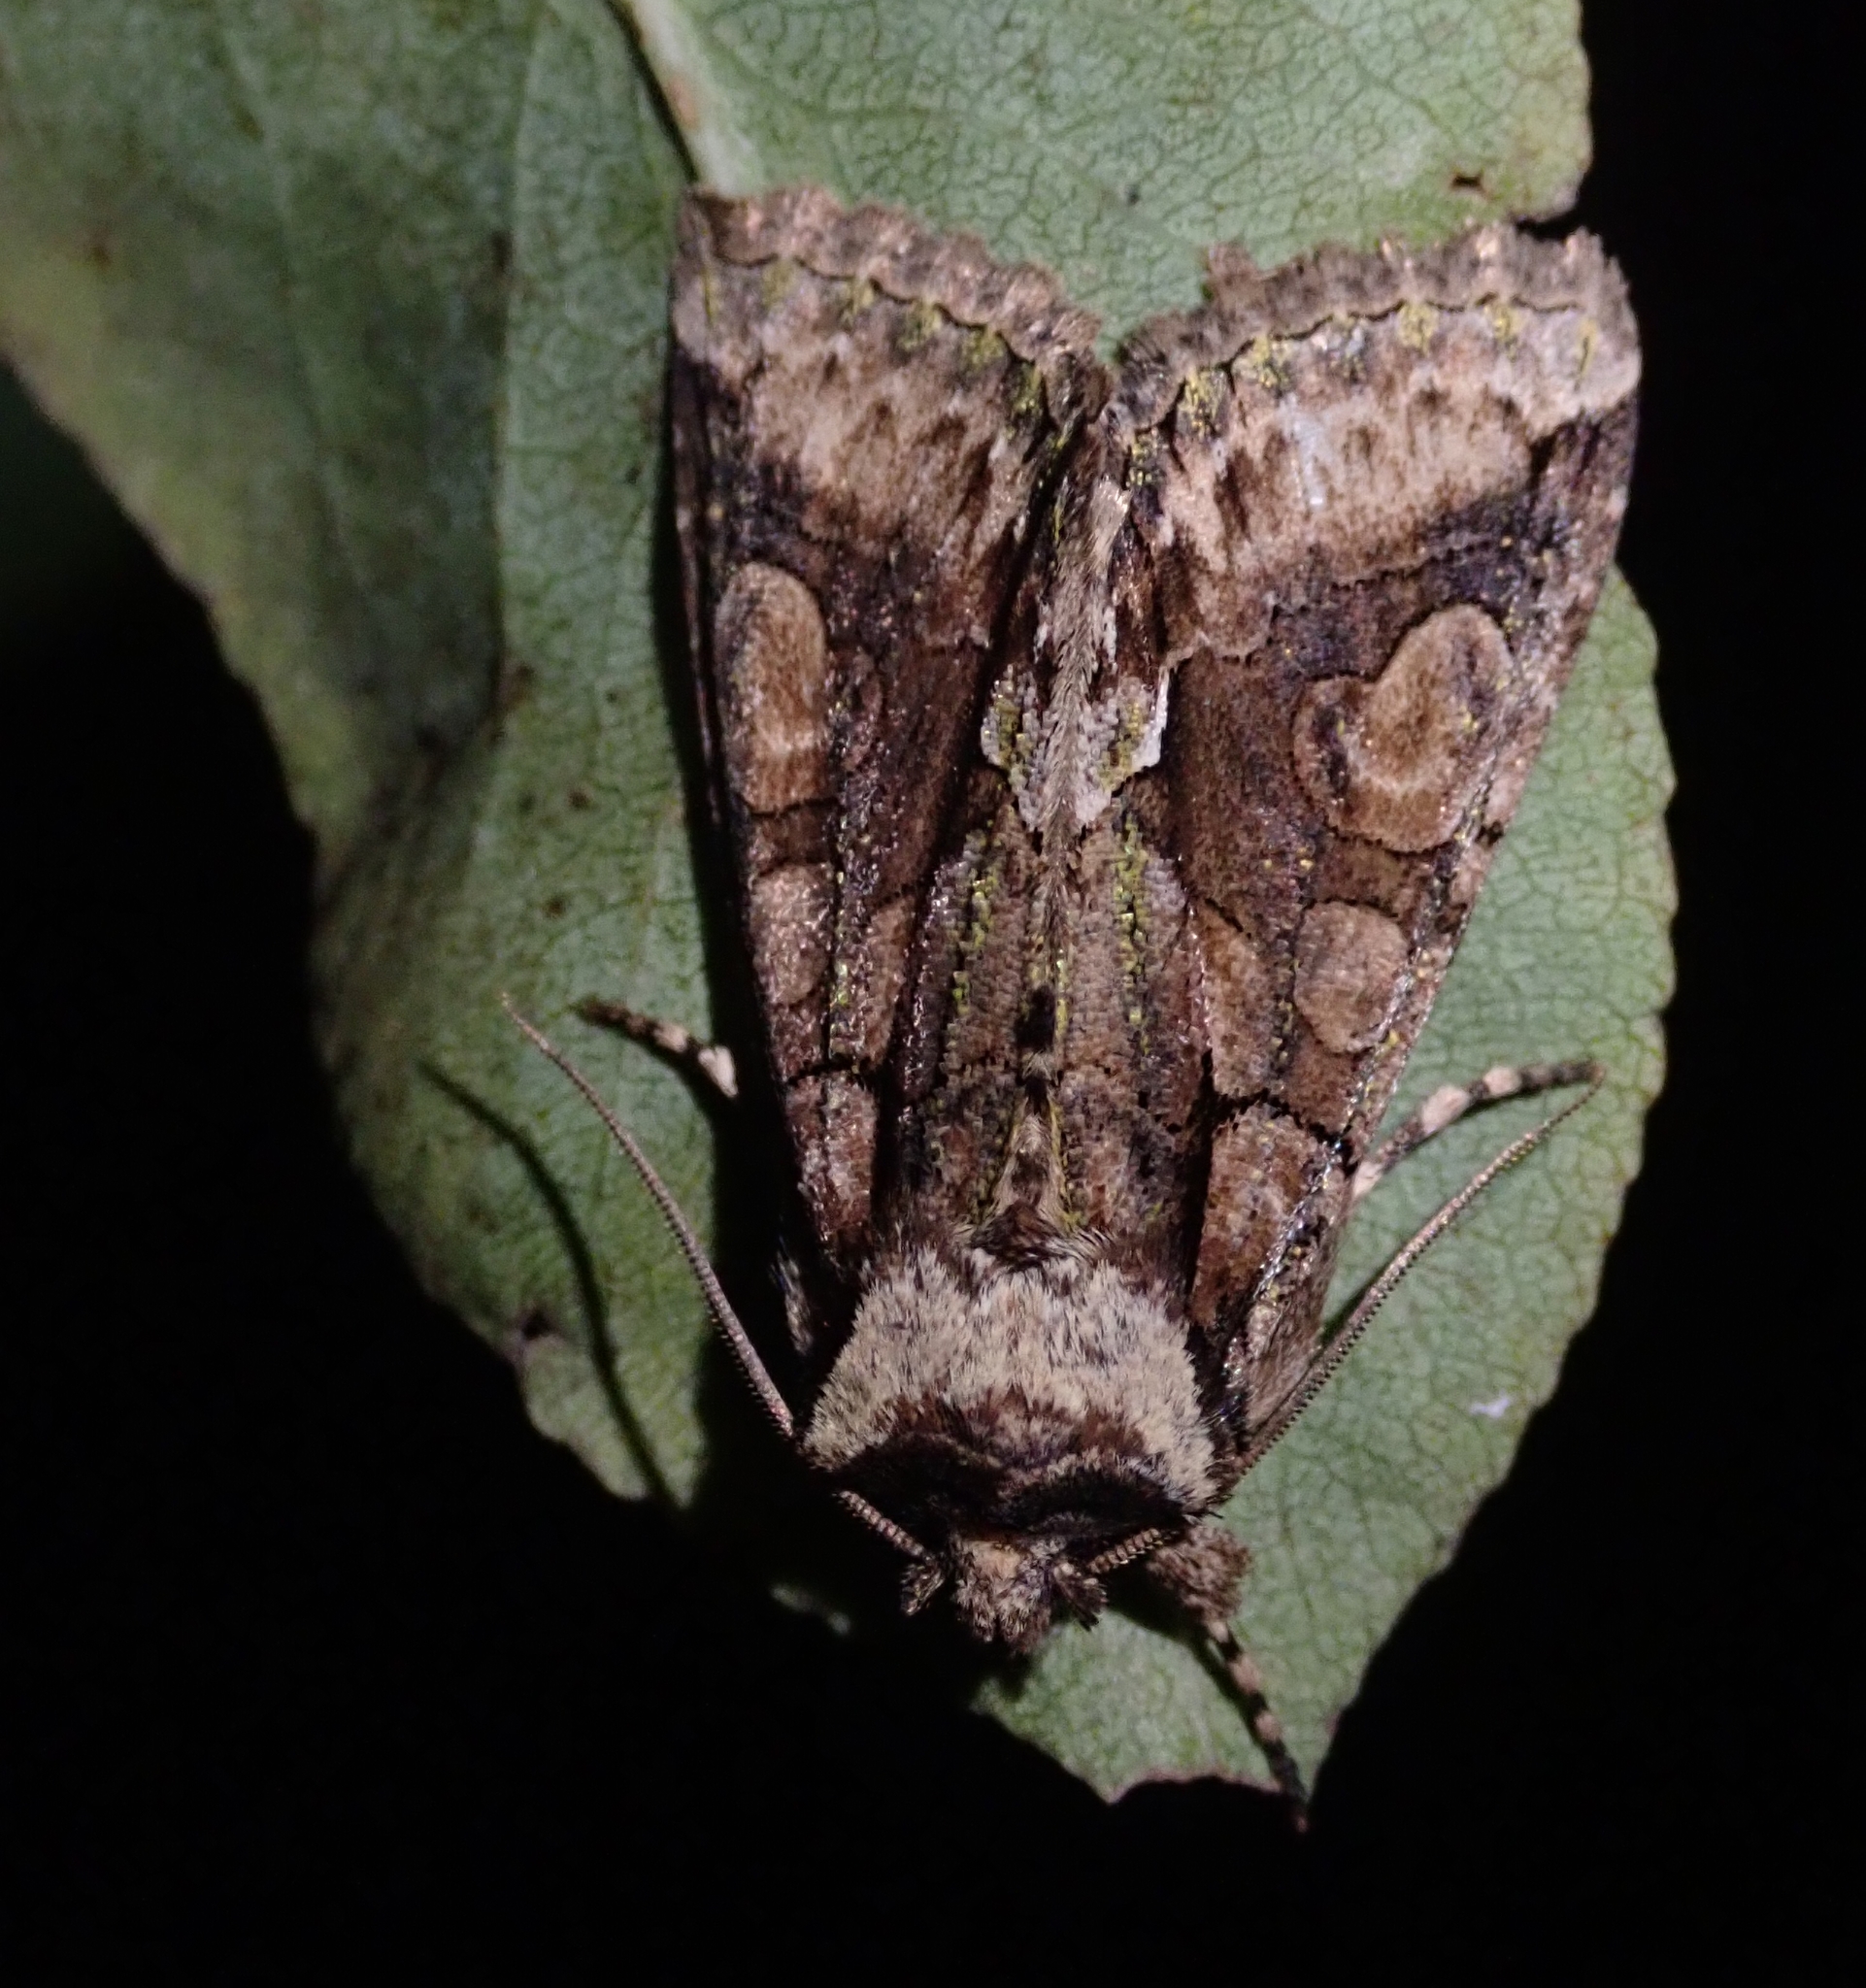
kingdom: Animalia
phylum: Arthropoda
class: Insecta
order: Lepidoptera
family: Noctuidae
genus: Allophyes
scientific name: Allophyes oxyacanthae
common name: Green-brindled crescent
